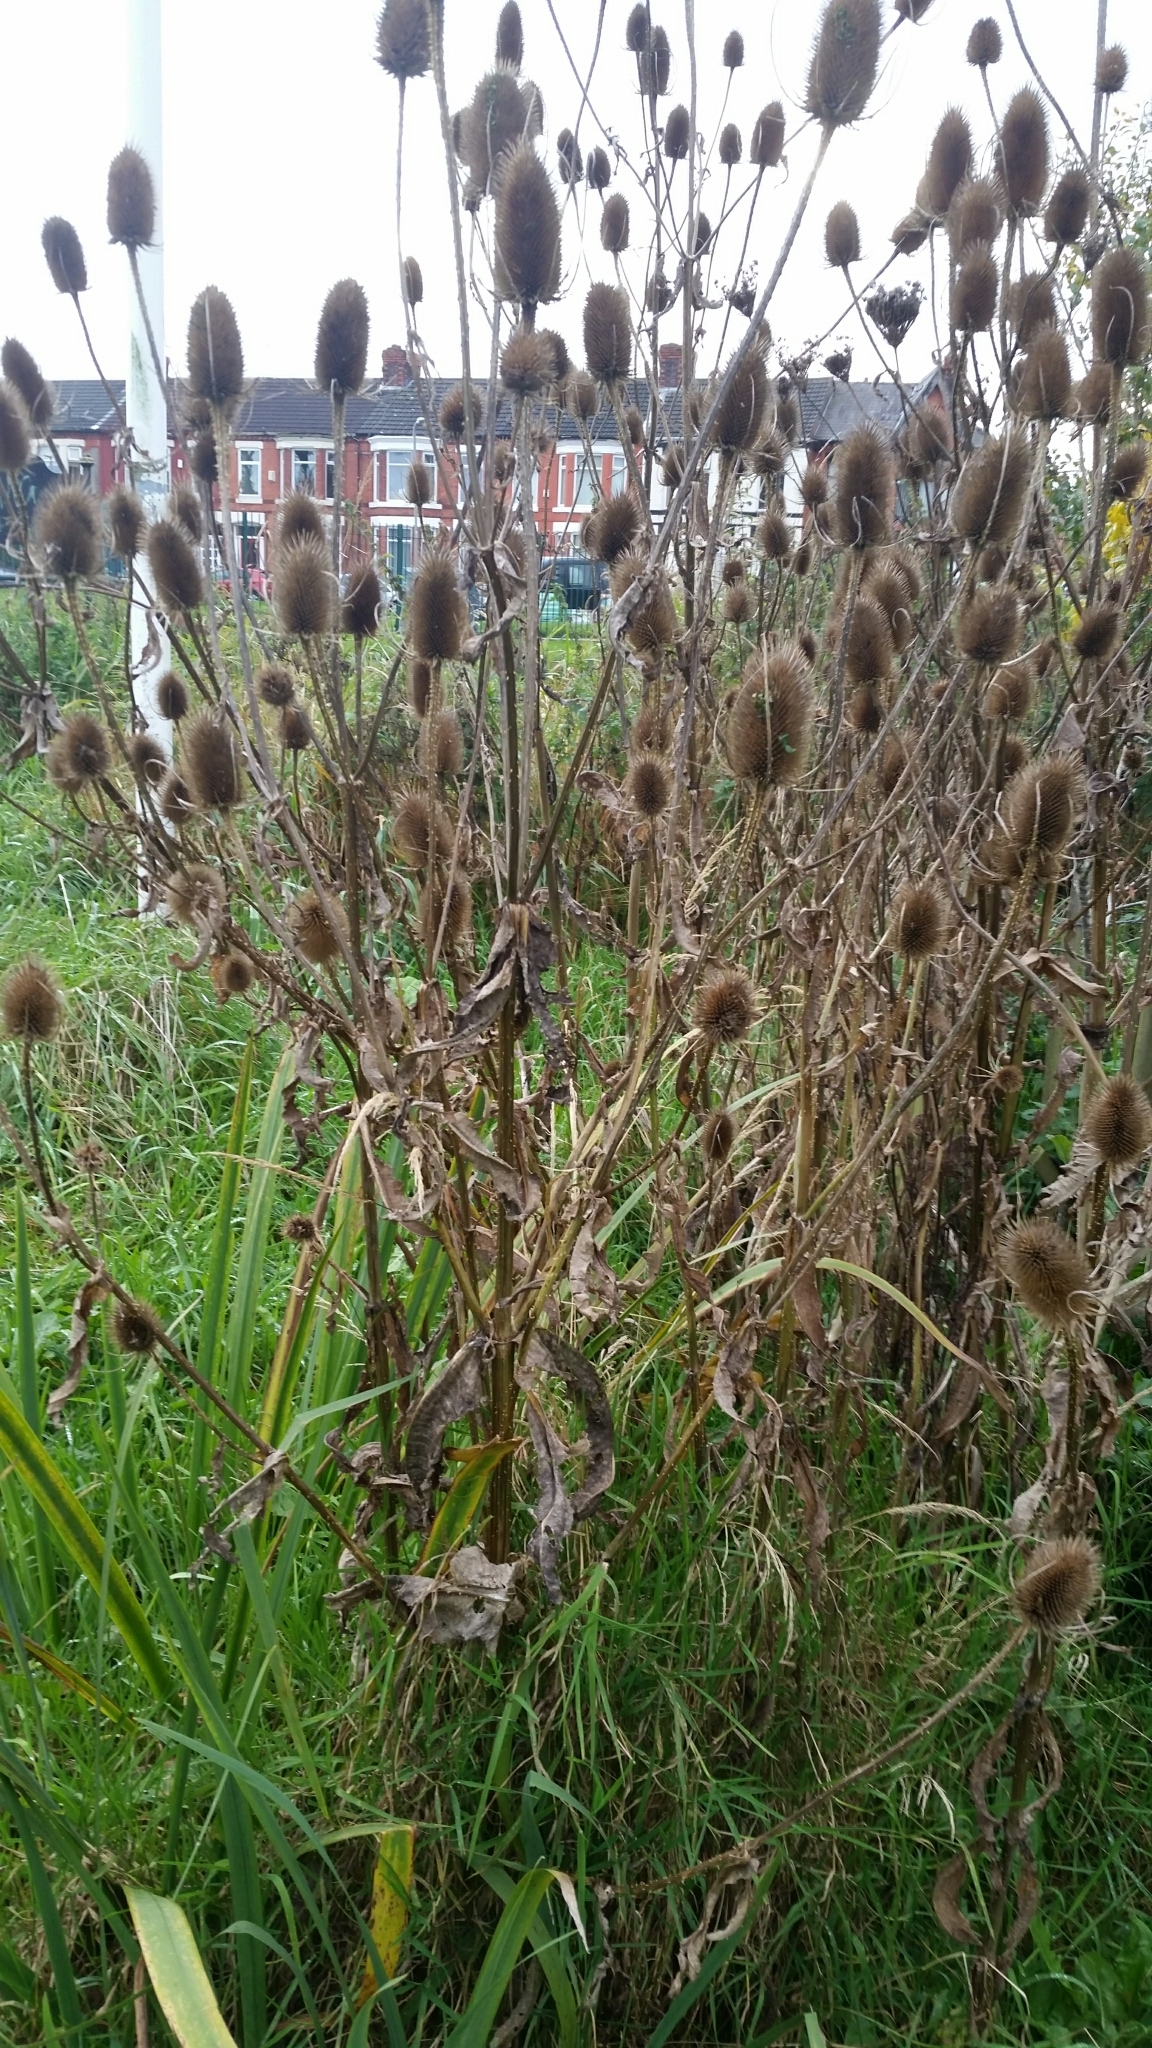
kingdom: Plantae
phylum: Tracheophyta
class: Magnoliopsida
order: Dipsacales
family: Caprifoliaceae
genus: Dipsacus
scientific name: Dipsacus fullonum
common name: Teasel
